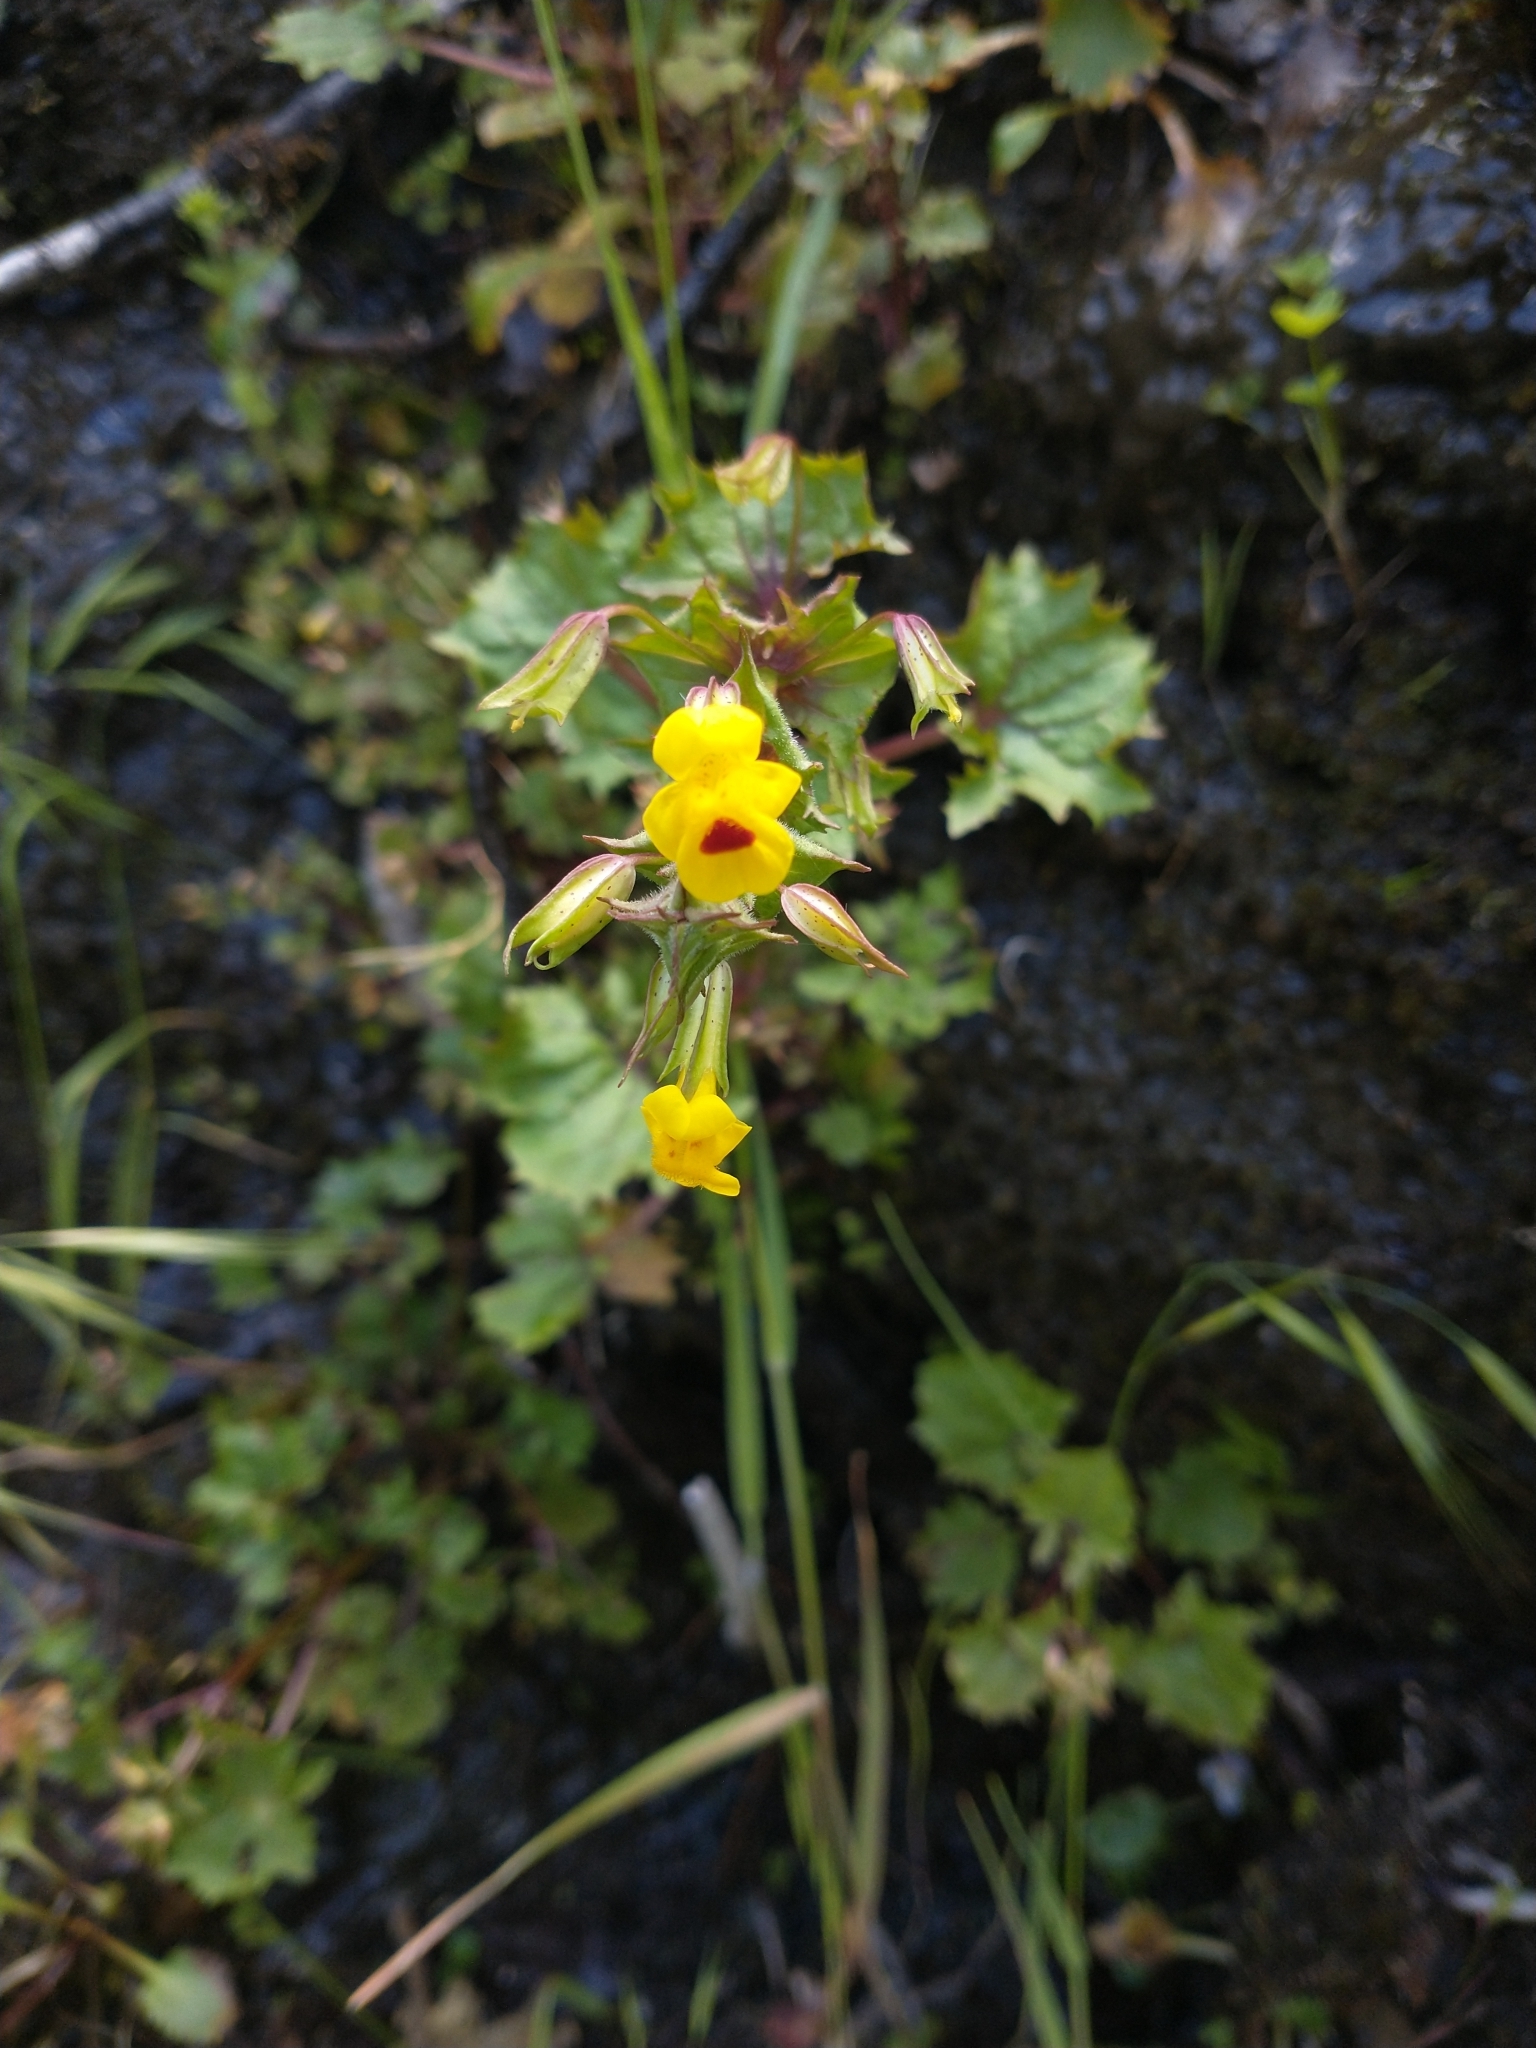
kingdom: Plantae
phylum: Tracheophyta
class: Magnoliopsida
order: Lamiales
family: Phrymaceae
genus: Erythranthe
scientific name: Erythranthe nasuta
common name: Sooke monkeyflower
